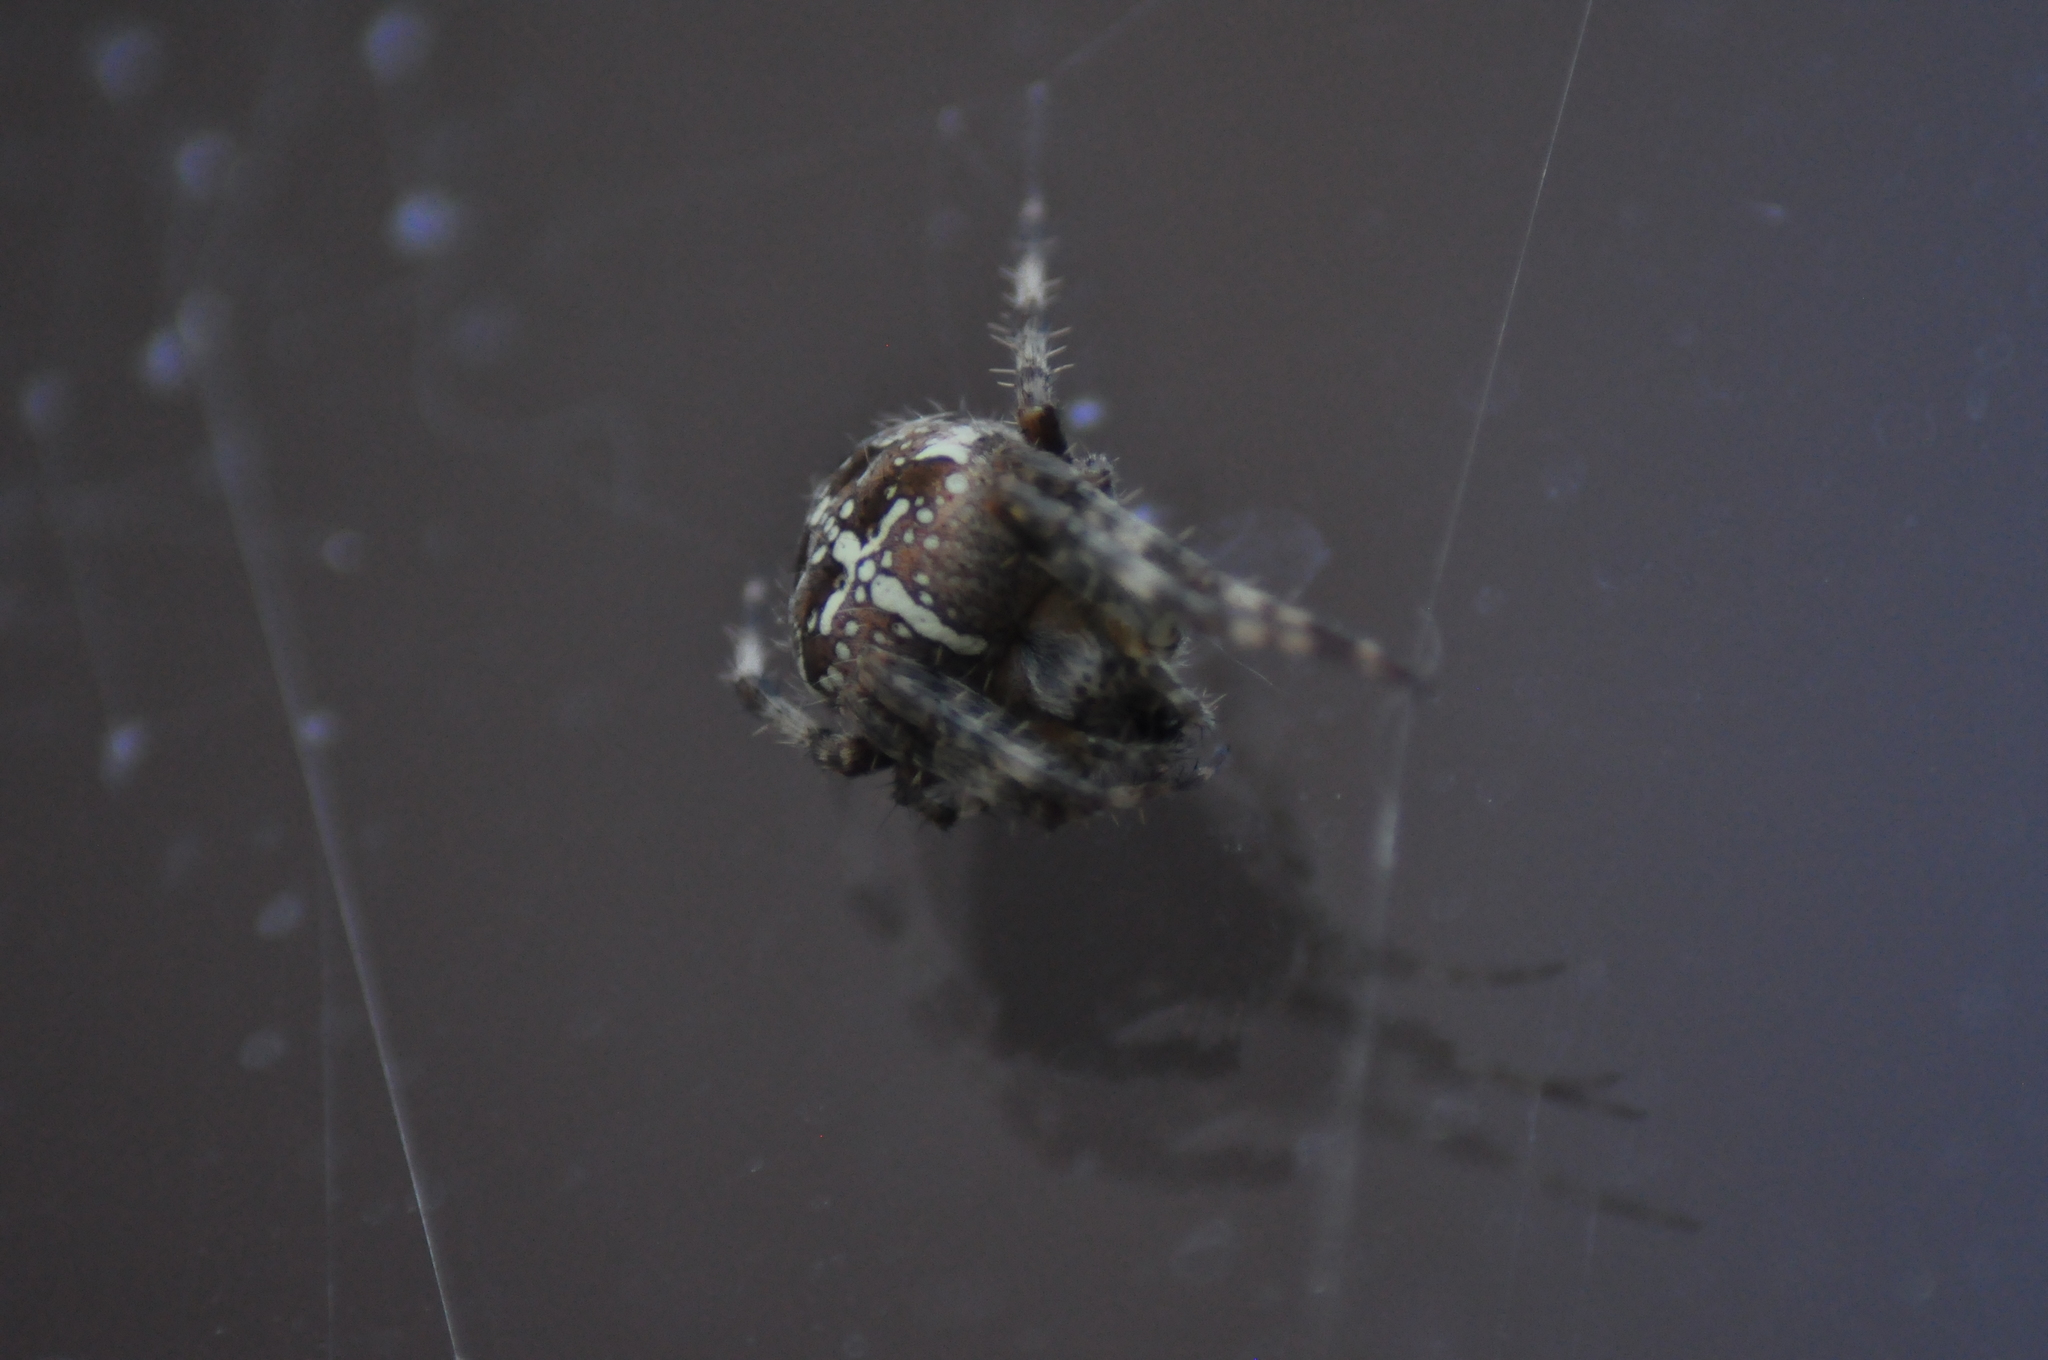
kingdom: Animalia
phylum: Arthropoda
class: Arachnida
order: Araneae
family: Araneidae
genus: Araneus
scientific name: Araneus diadematus
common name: Cross orbweaver
